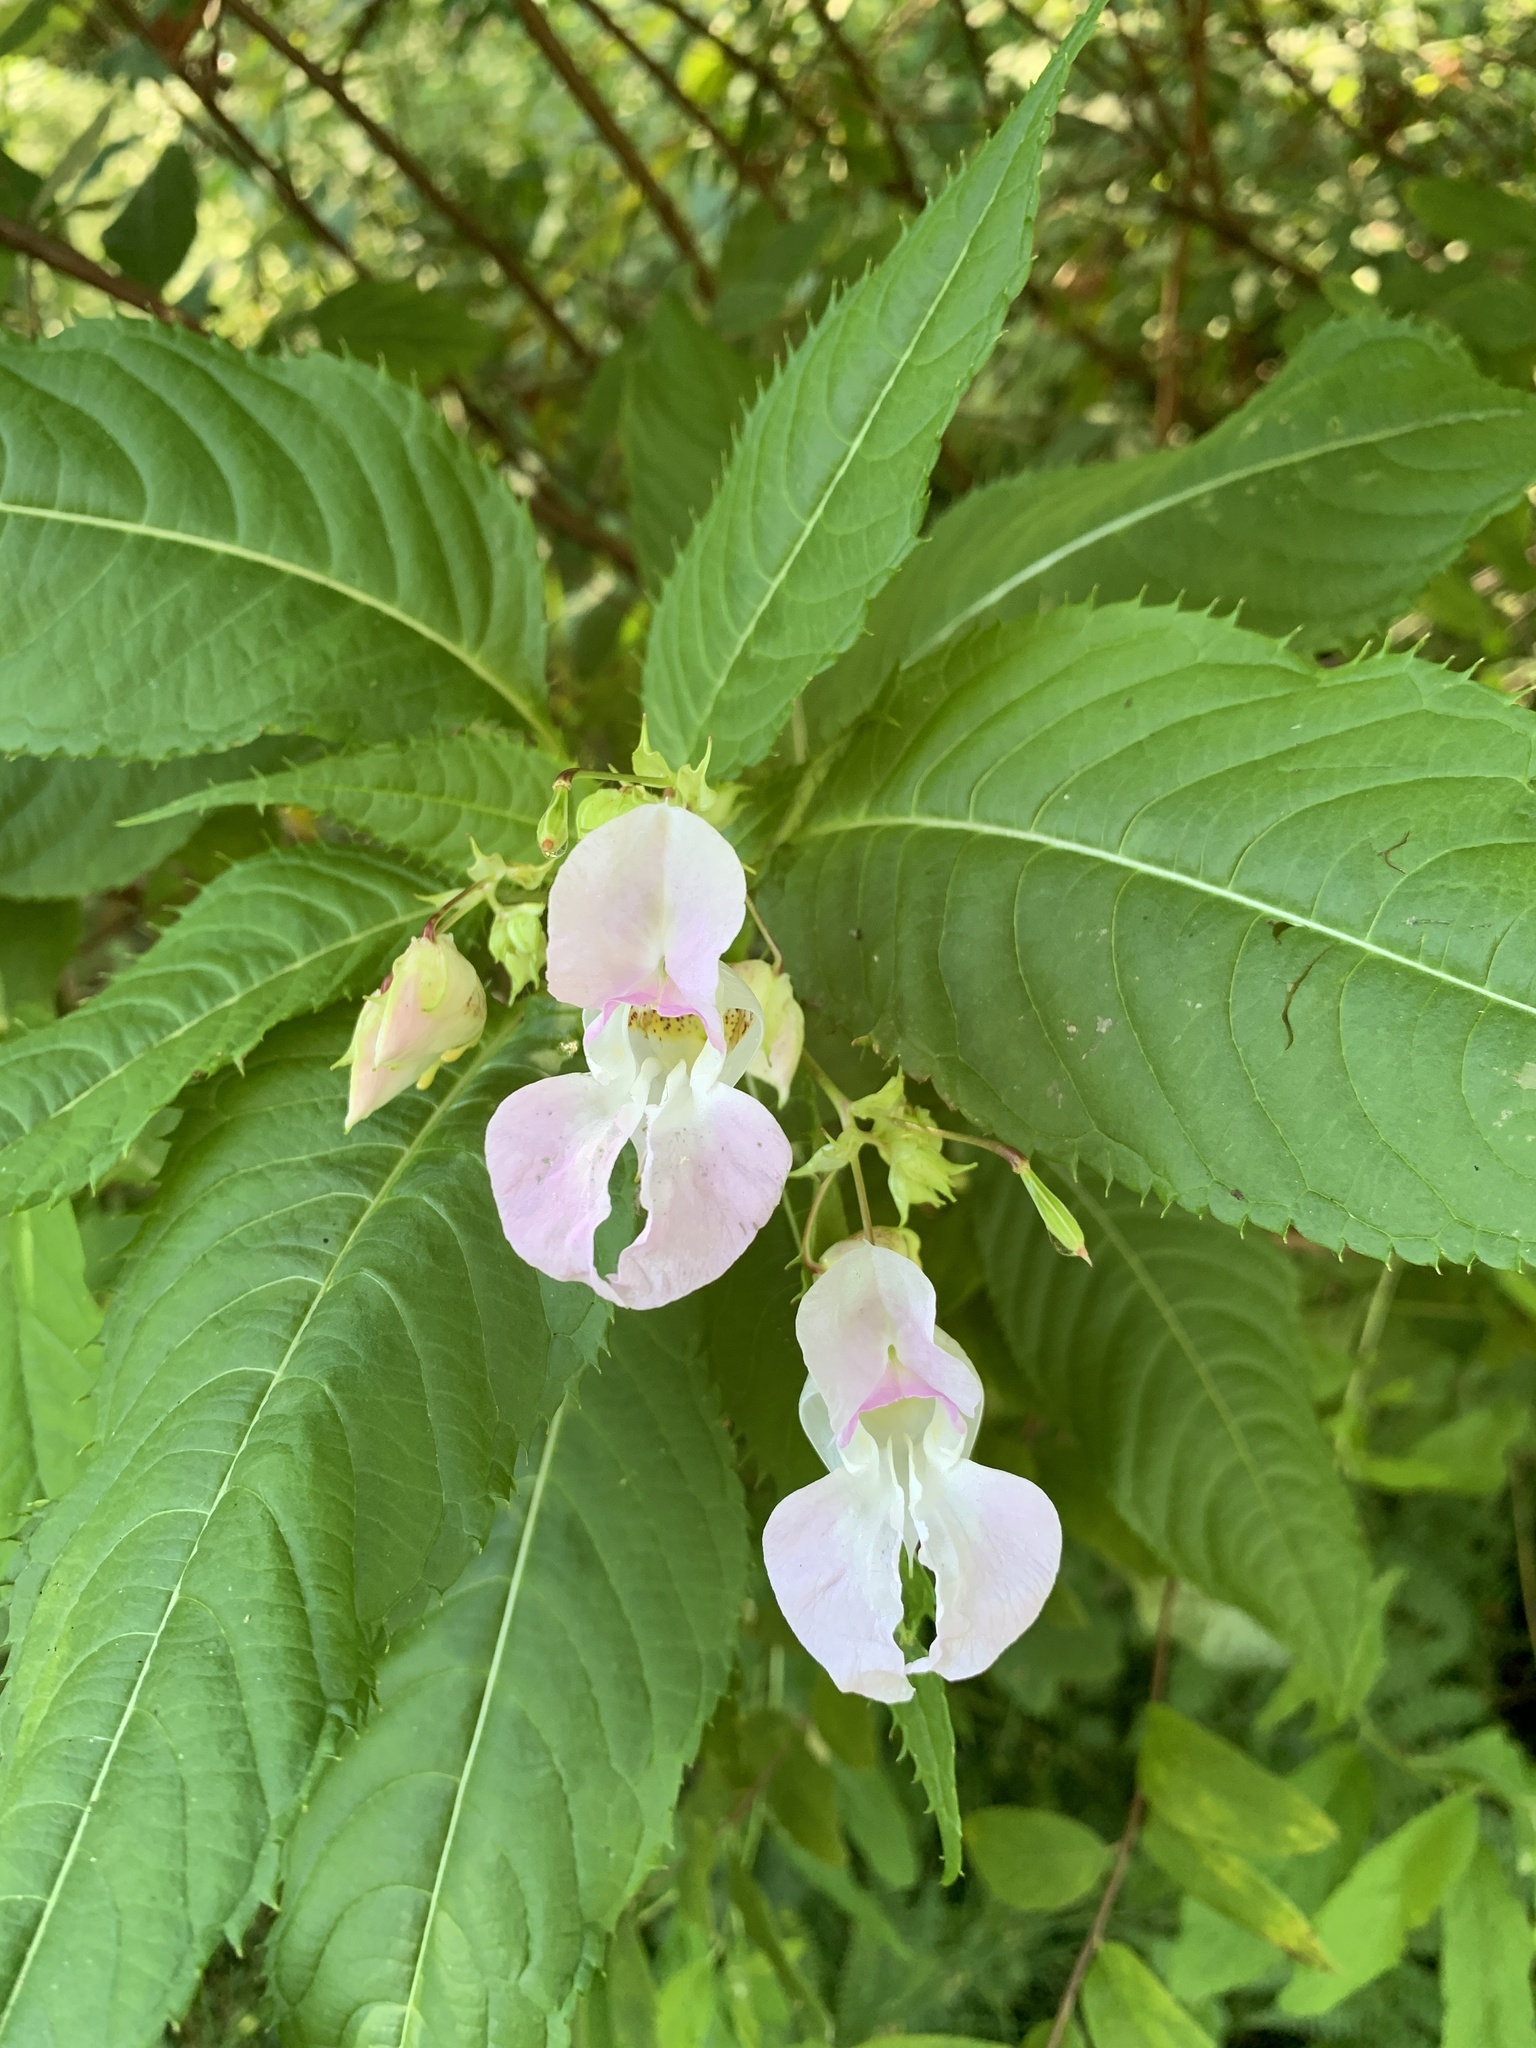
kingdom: Plantae
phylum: Tracheophyta
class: Magnoliopsida
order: Ericales
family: Balsaminaceae
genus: Impatiens
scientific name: Impatiens glandulifera
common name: Himalayan balsam
